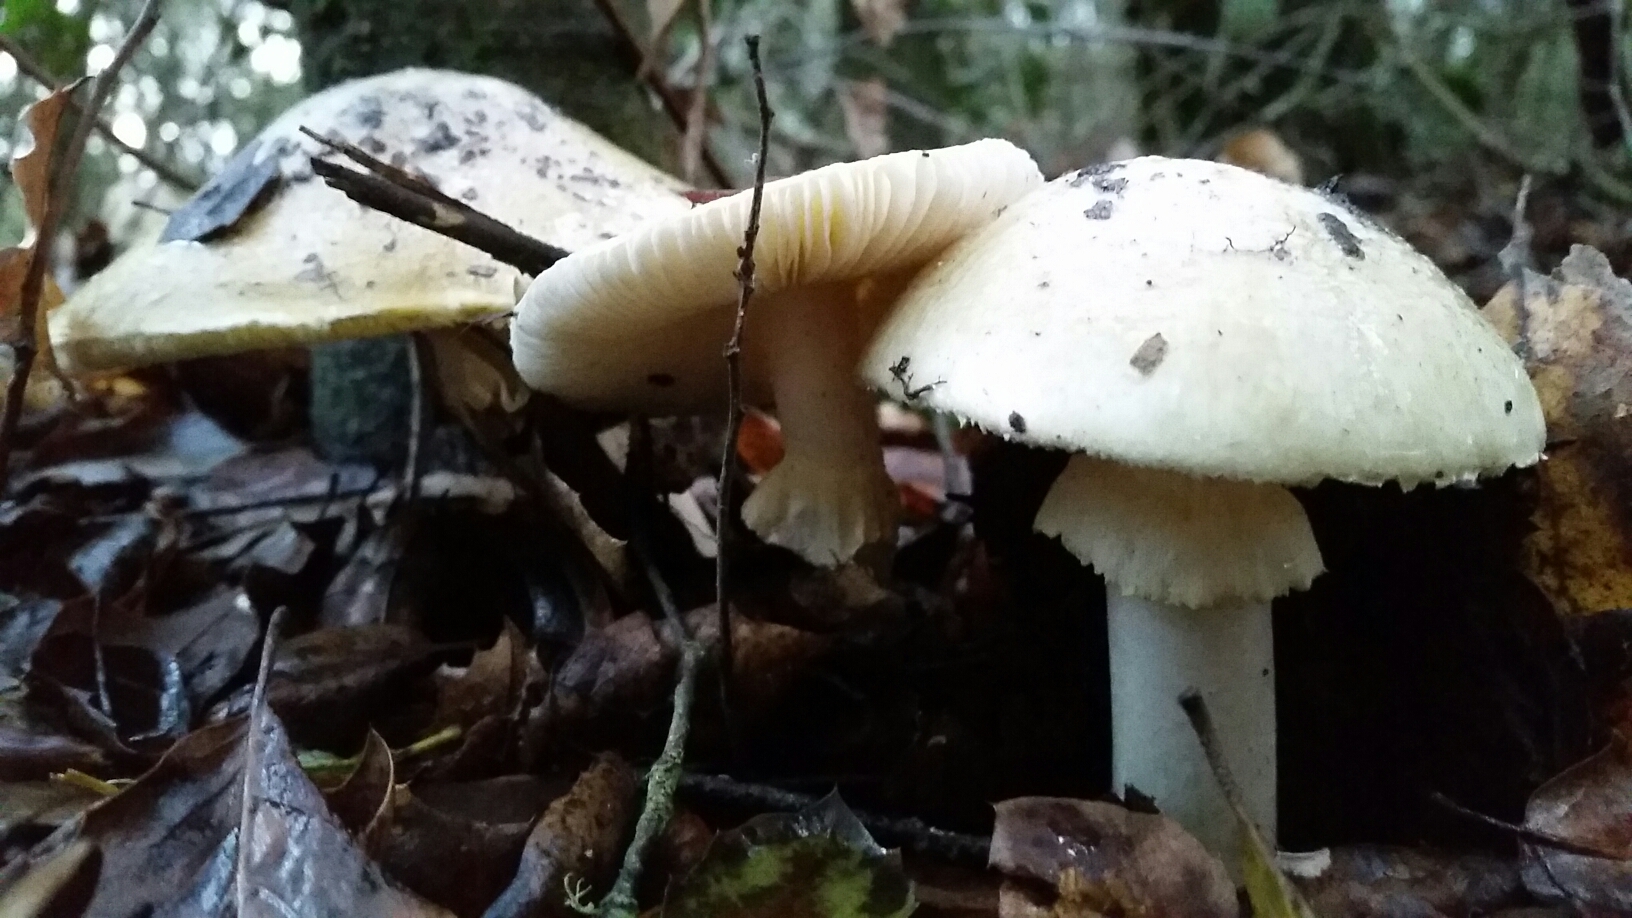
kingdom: Fungi
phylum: Basidiomycota
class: Agaricomycetes
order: Agaricales
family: Amanitaceae
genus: Amanita
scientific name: Amanita phalloides
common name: Death cap
